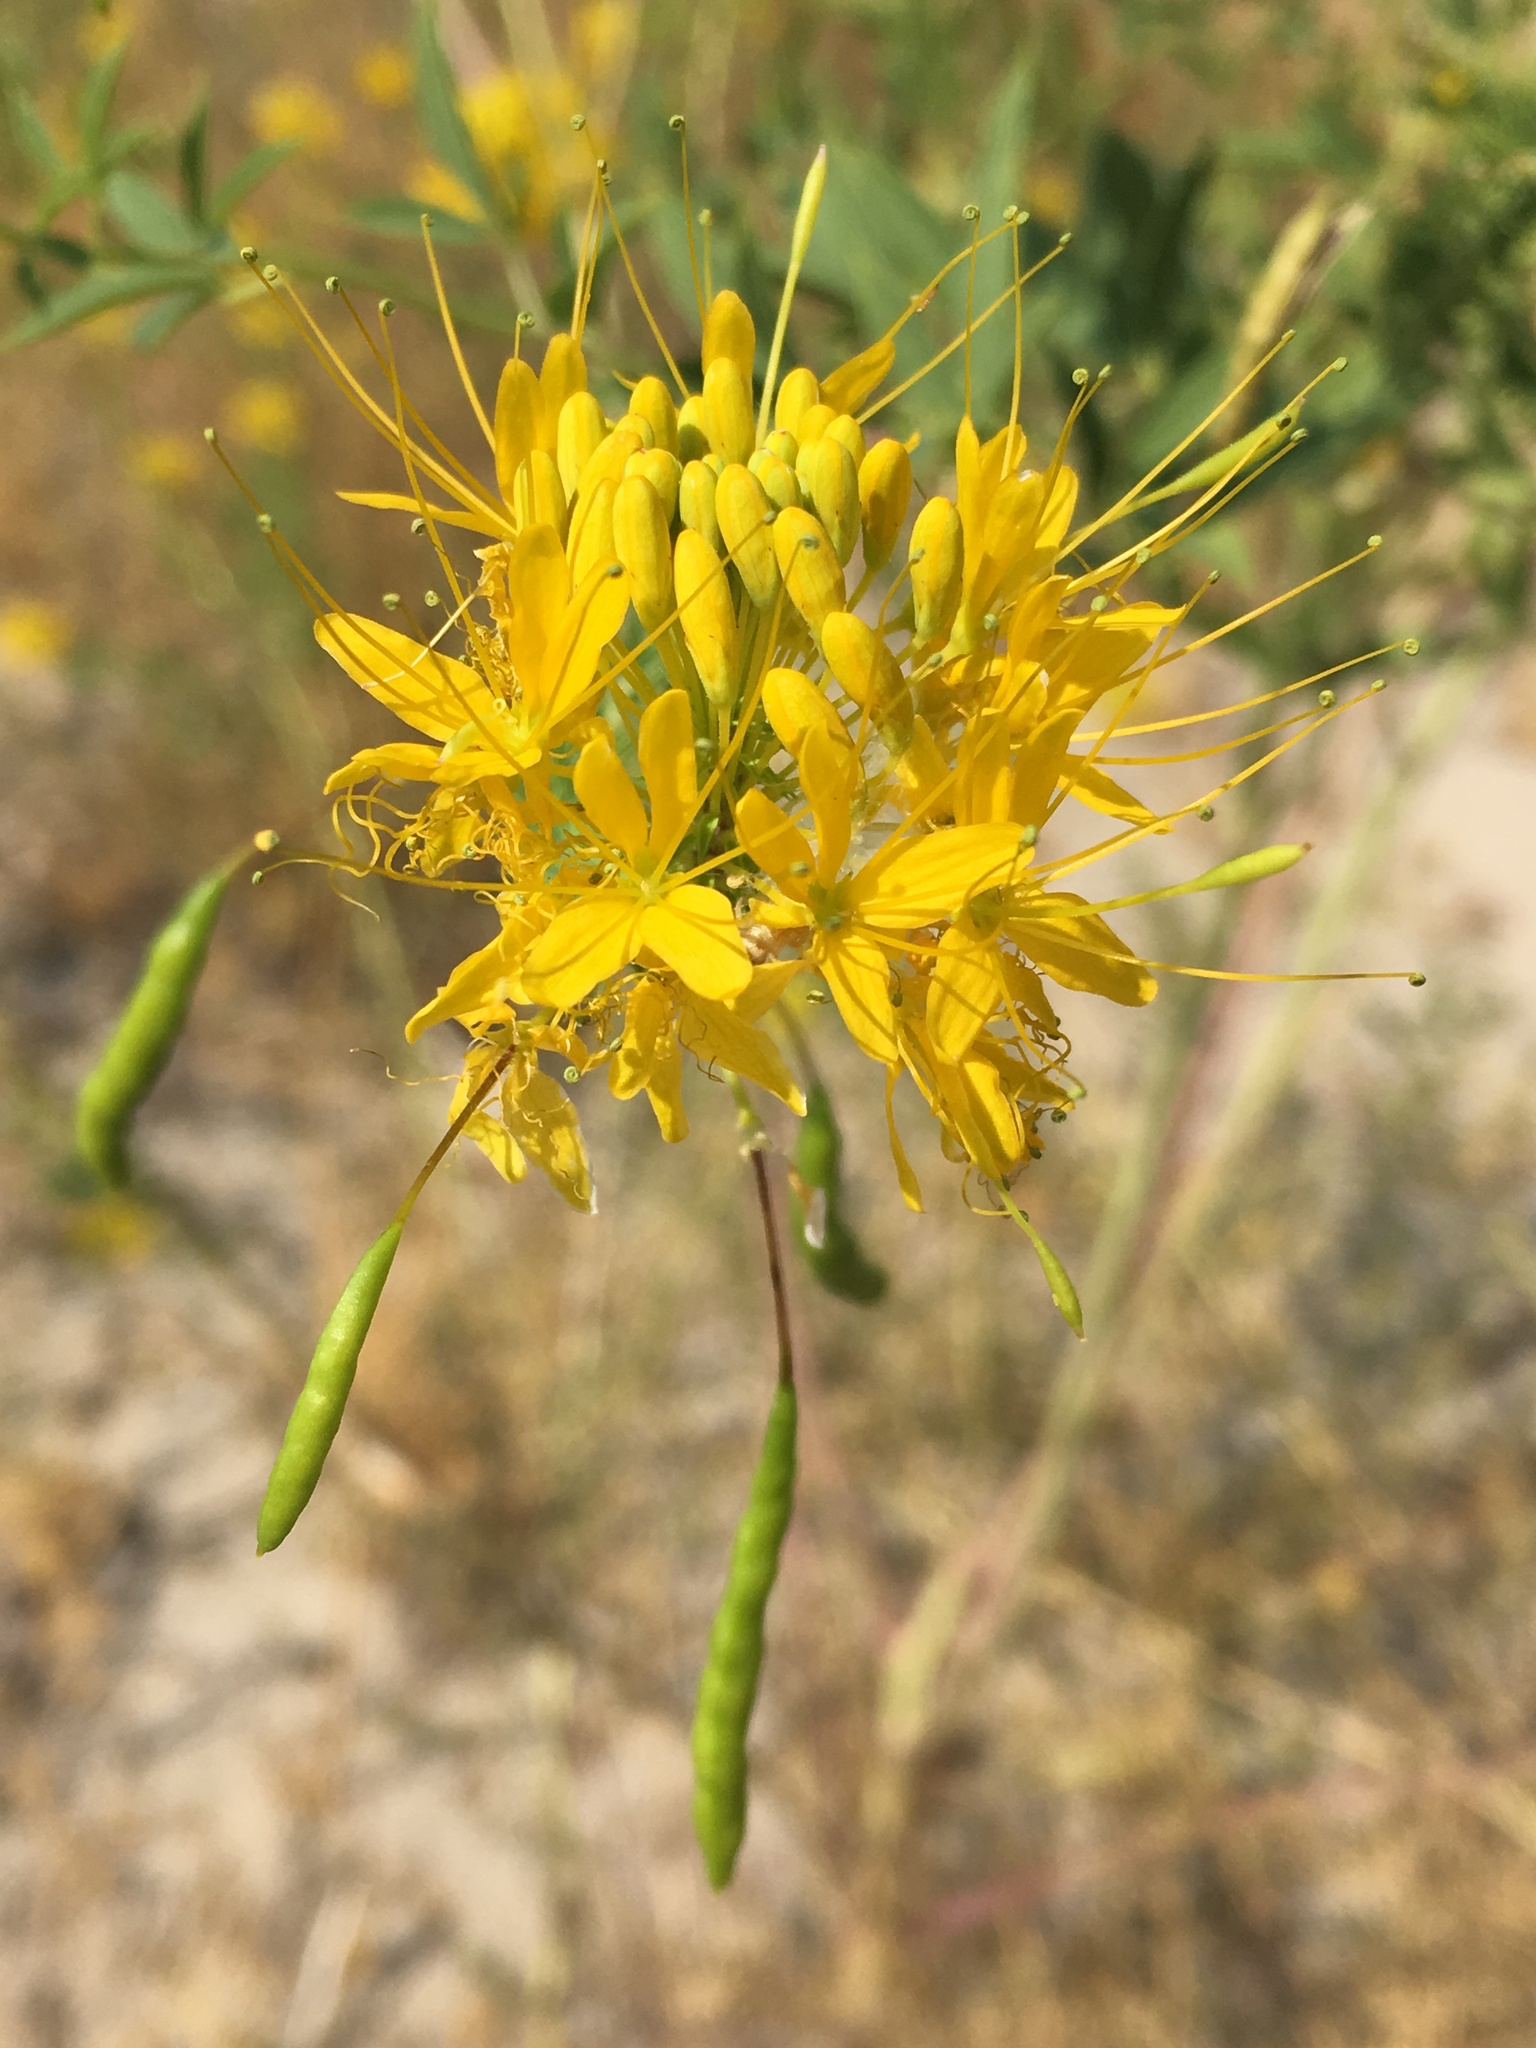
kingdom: Plantae
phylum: Tracheophyta
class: Magnoliopsida
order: Brassicales
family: Cleomaceae
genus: Cleomella
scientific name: Cleomella lutea
